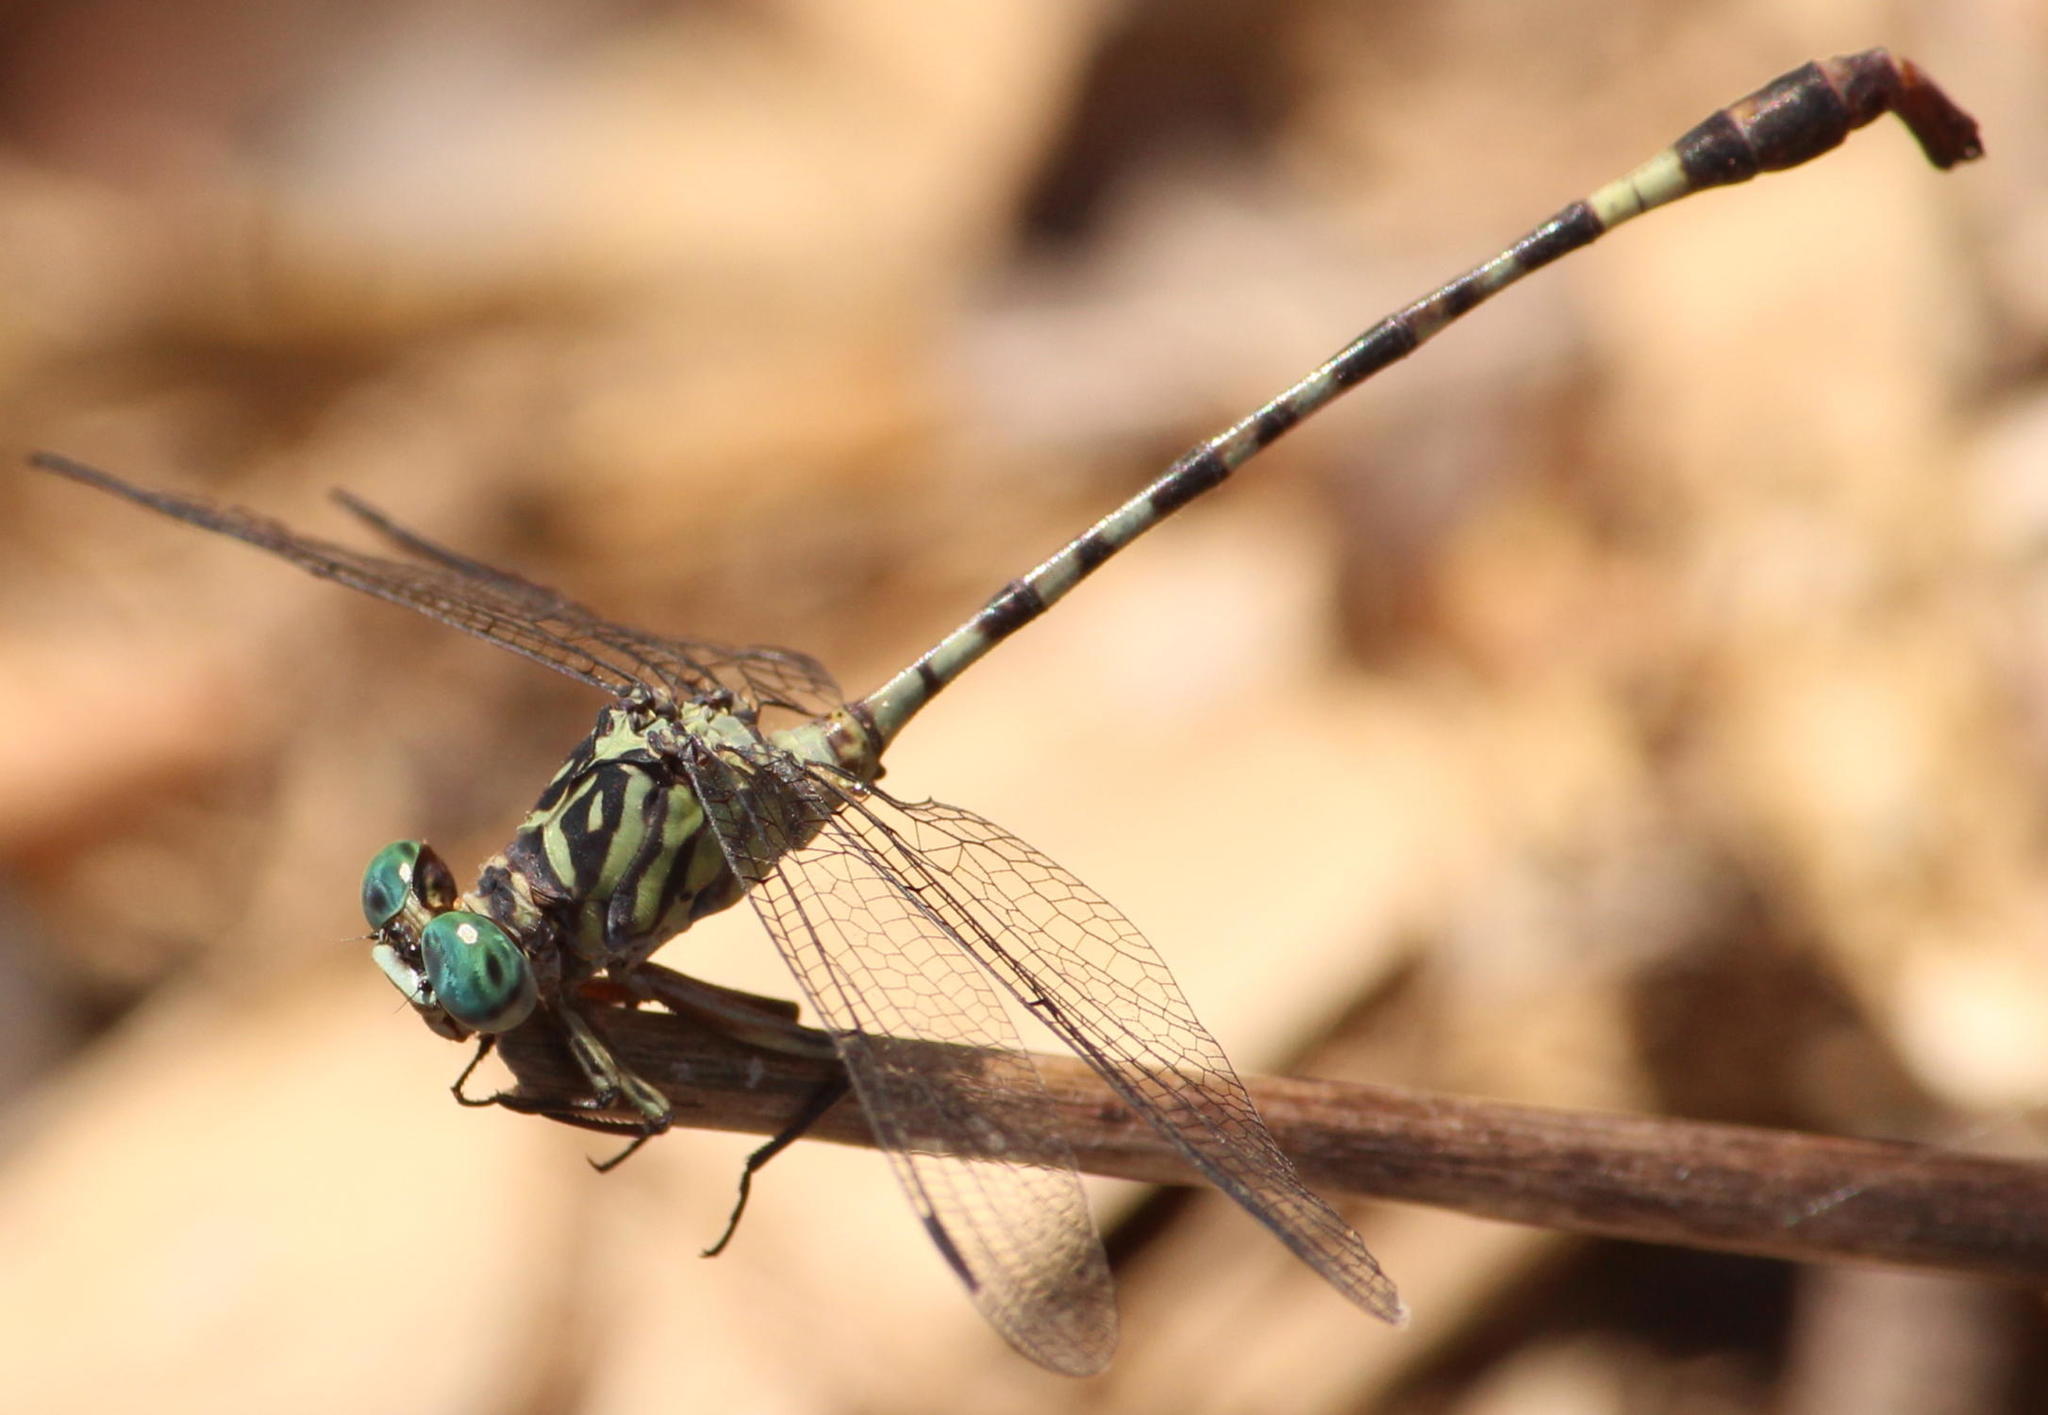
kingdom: Animalia
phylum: Arthropoda
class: Insecta
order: Odonata
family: Gomphidae
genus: Lestinogomphus
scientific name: Lestinogomphus angustus
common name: Spined fairytail
